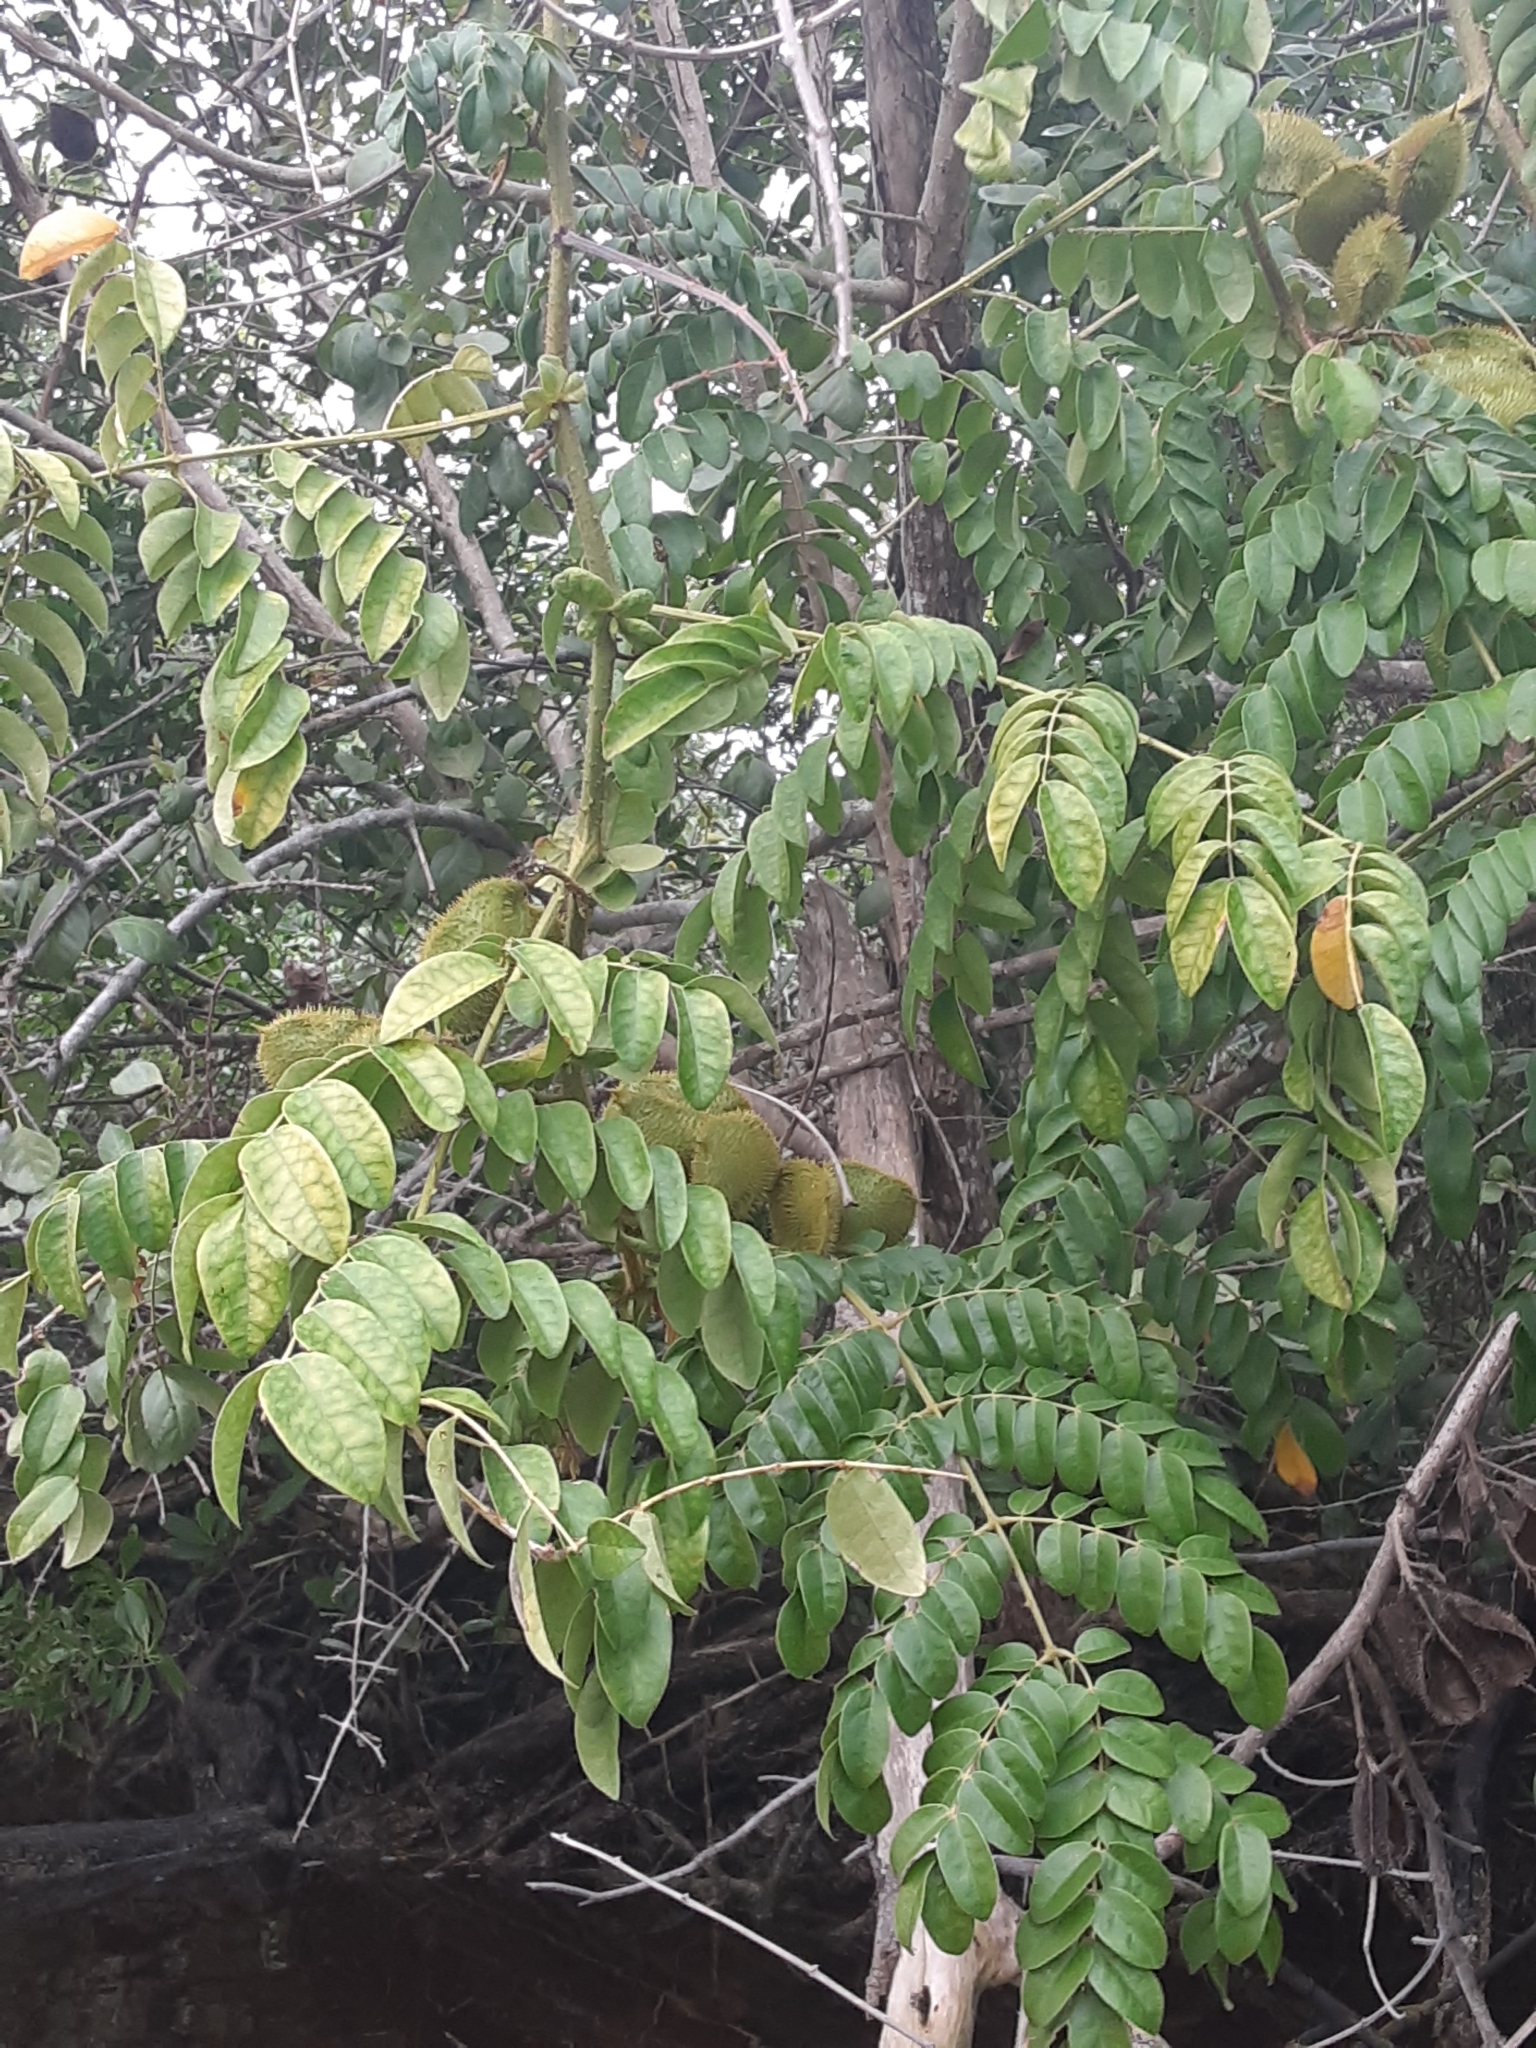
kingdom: Plantae
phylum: Tracheophyta
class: Magnoliopsida
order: Fabales
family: Fabaceae
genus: Guilandina
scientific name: Guilandina bonduc
